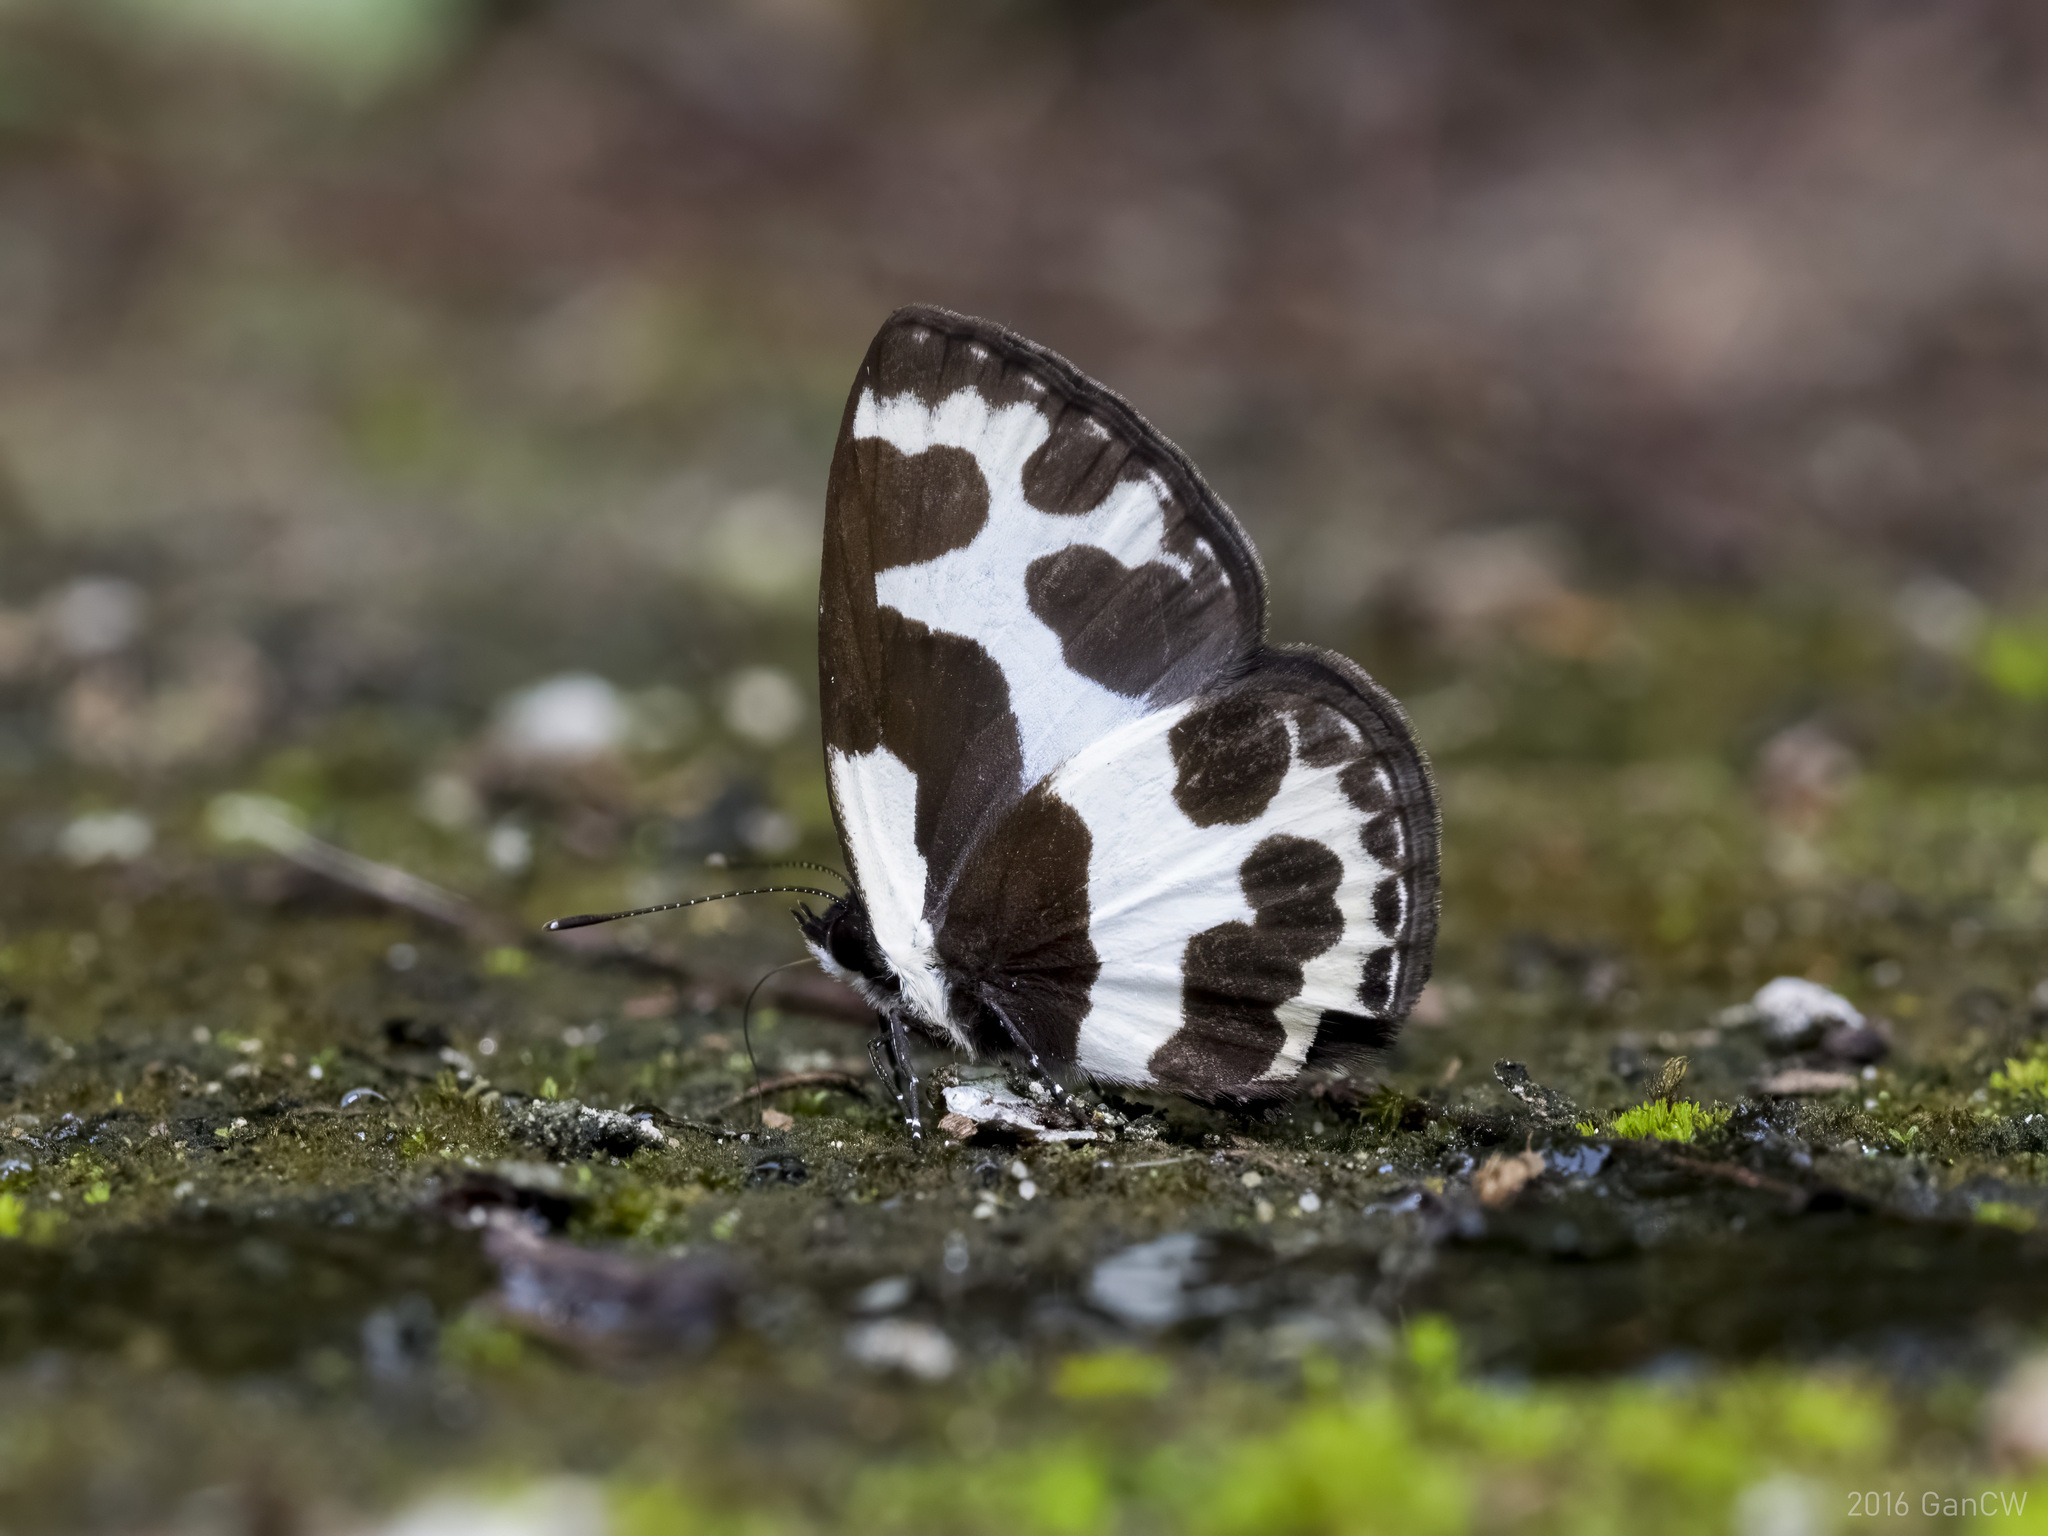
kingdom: Animalia
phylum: Arthropoda
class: Insecta
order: Lepidoptera
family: Lycaenidae
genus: Caleta
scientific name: Caleta elna
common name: Elbowed pierrot
